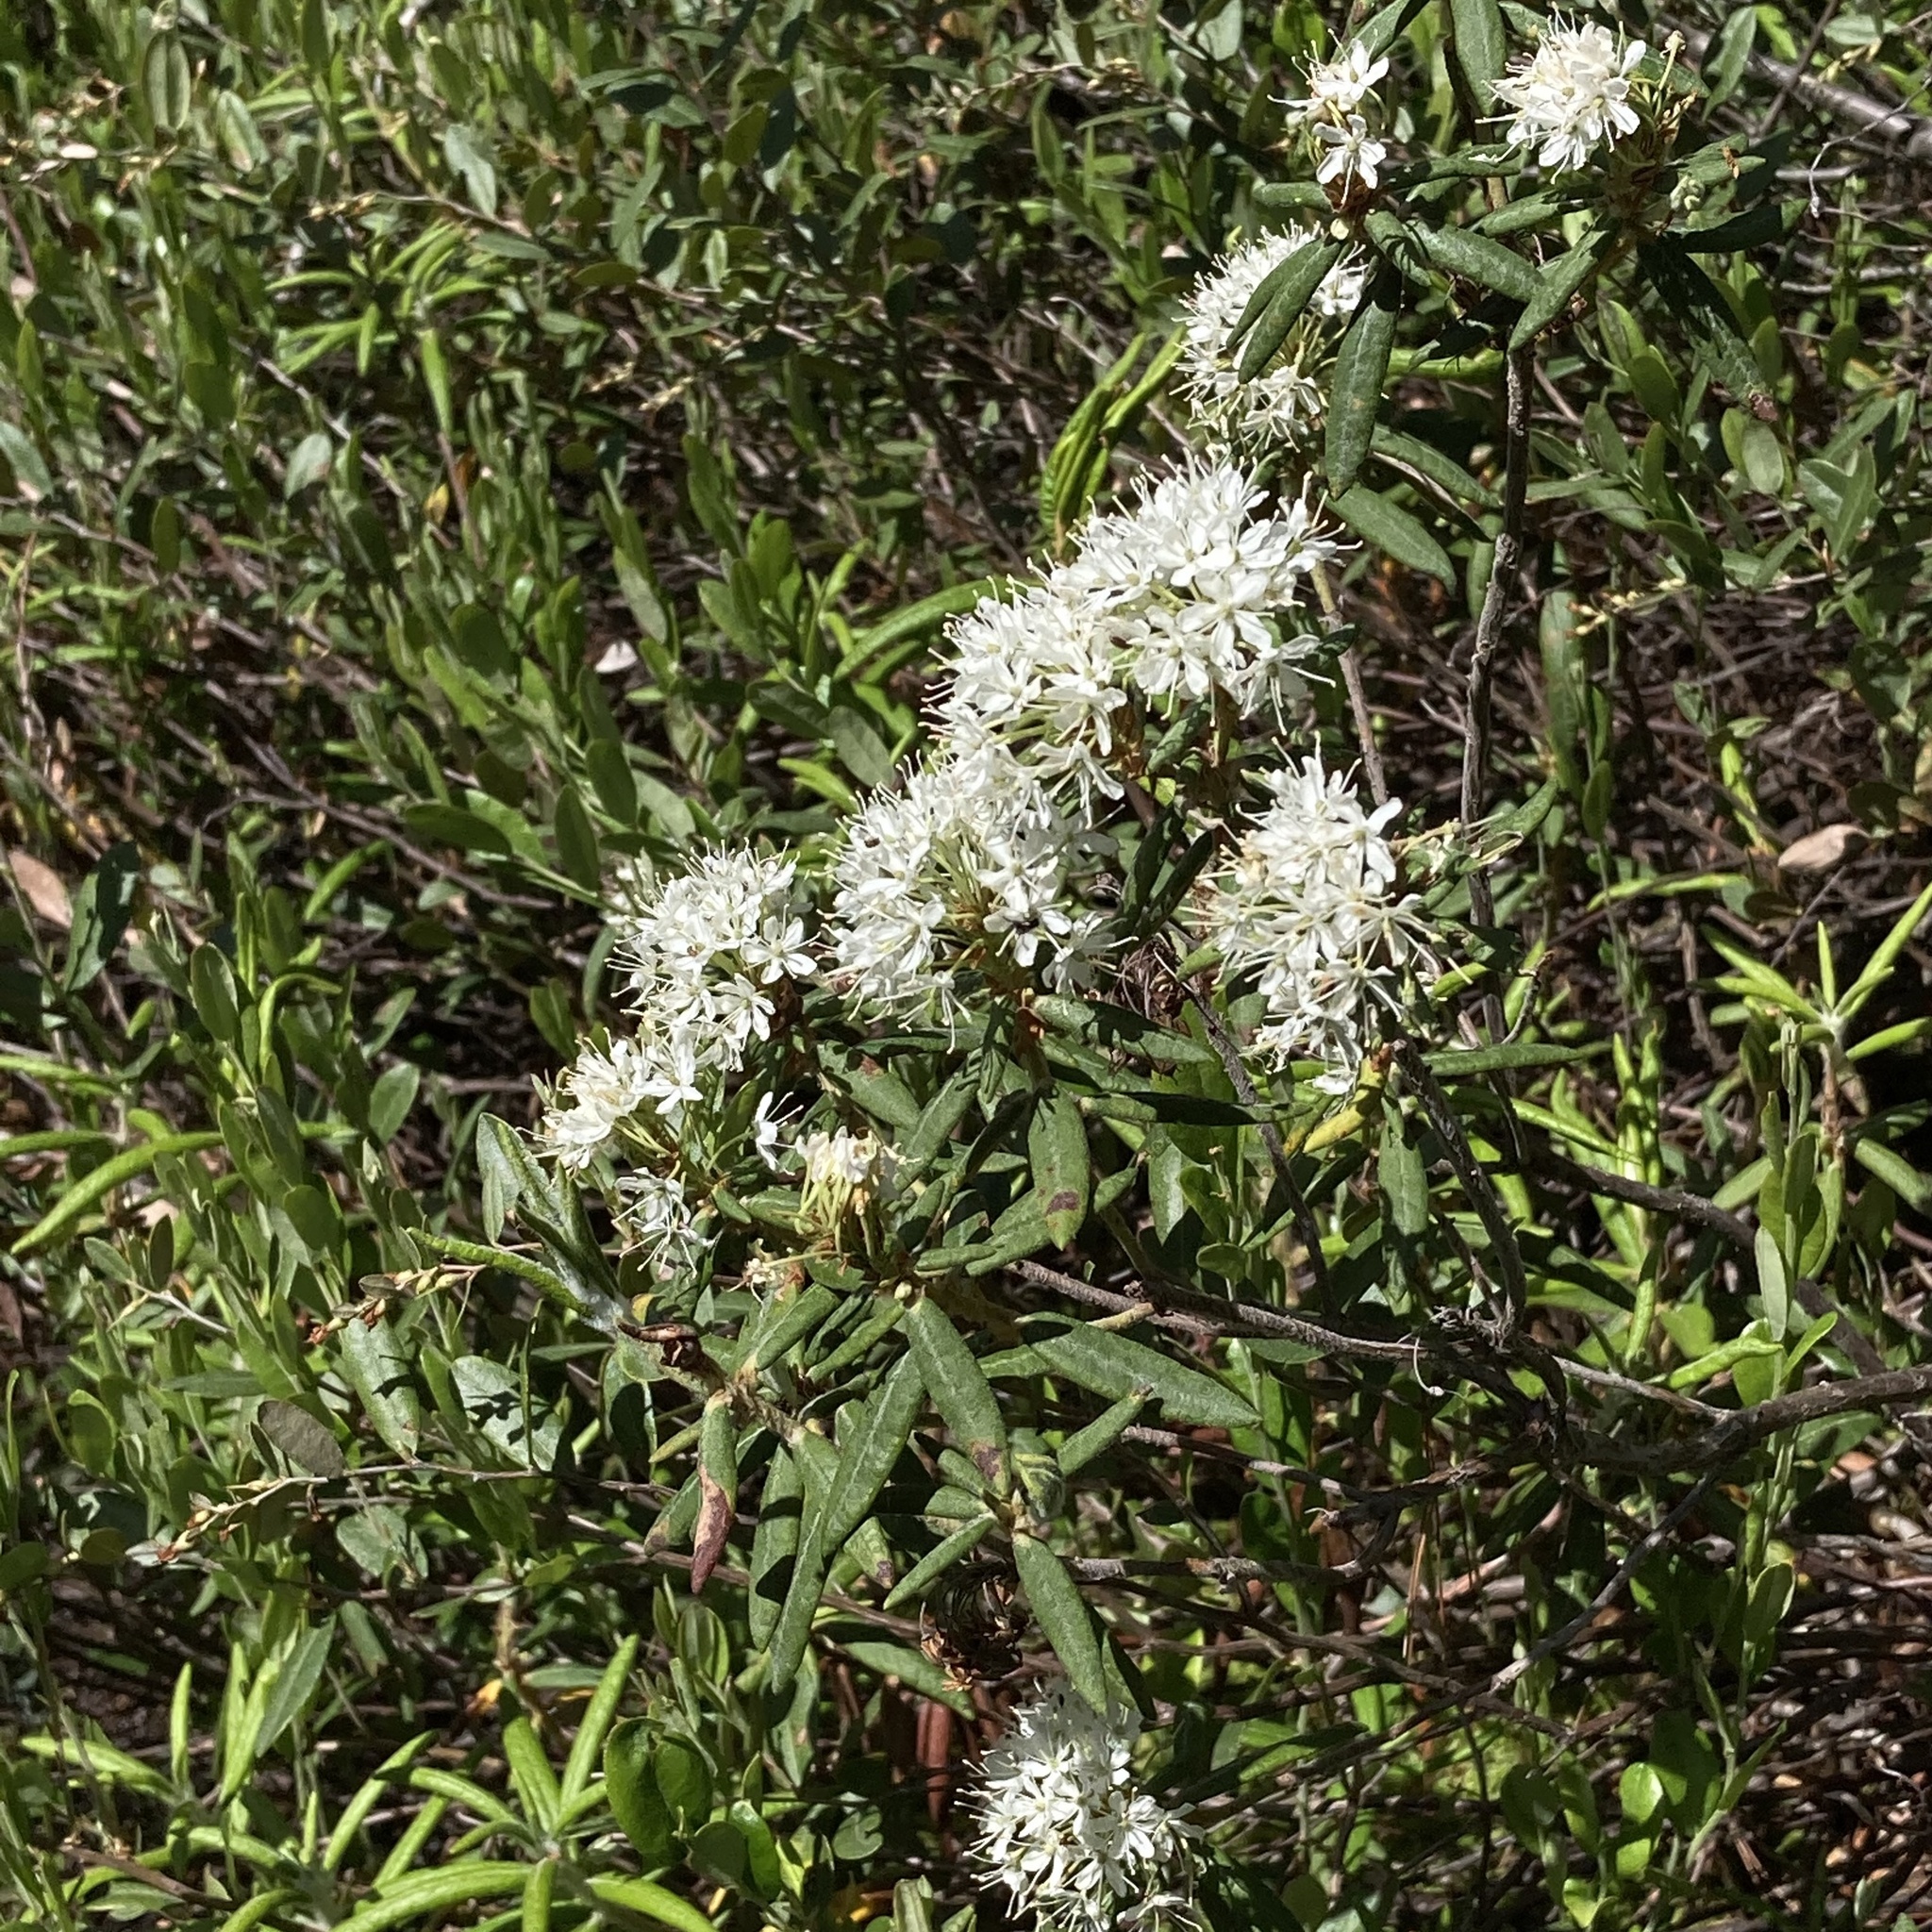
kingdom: Plantae
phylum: Tracheophyta
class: Magnoliopsida
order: Ericales
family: Ericaceae
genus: Rhododendron
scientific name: Rhododendron groenlandicum
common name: Bog labrador tea
